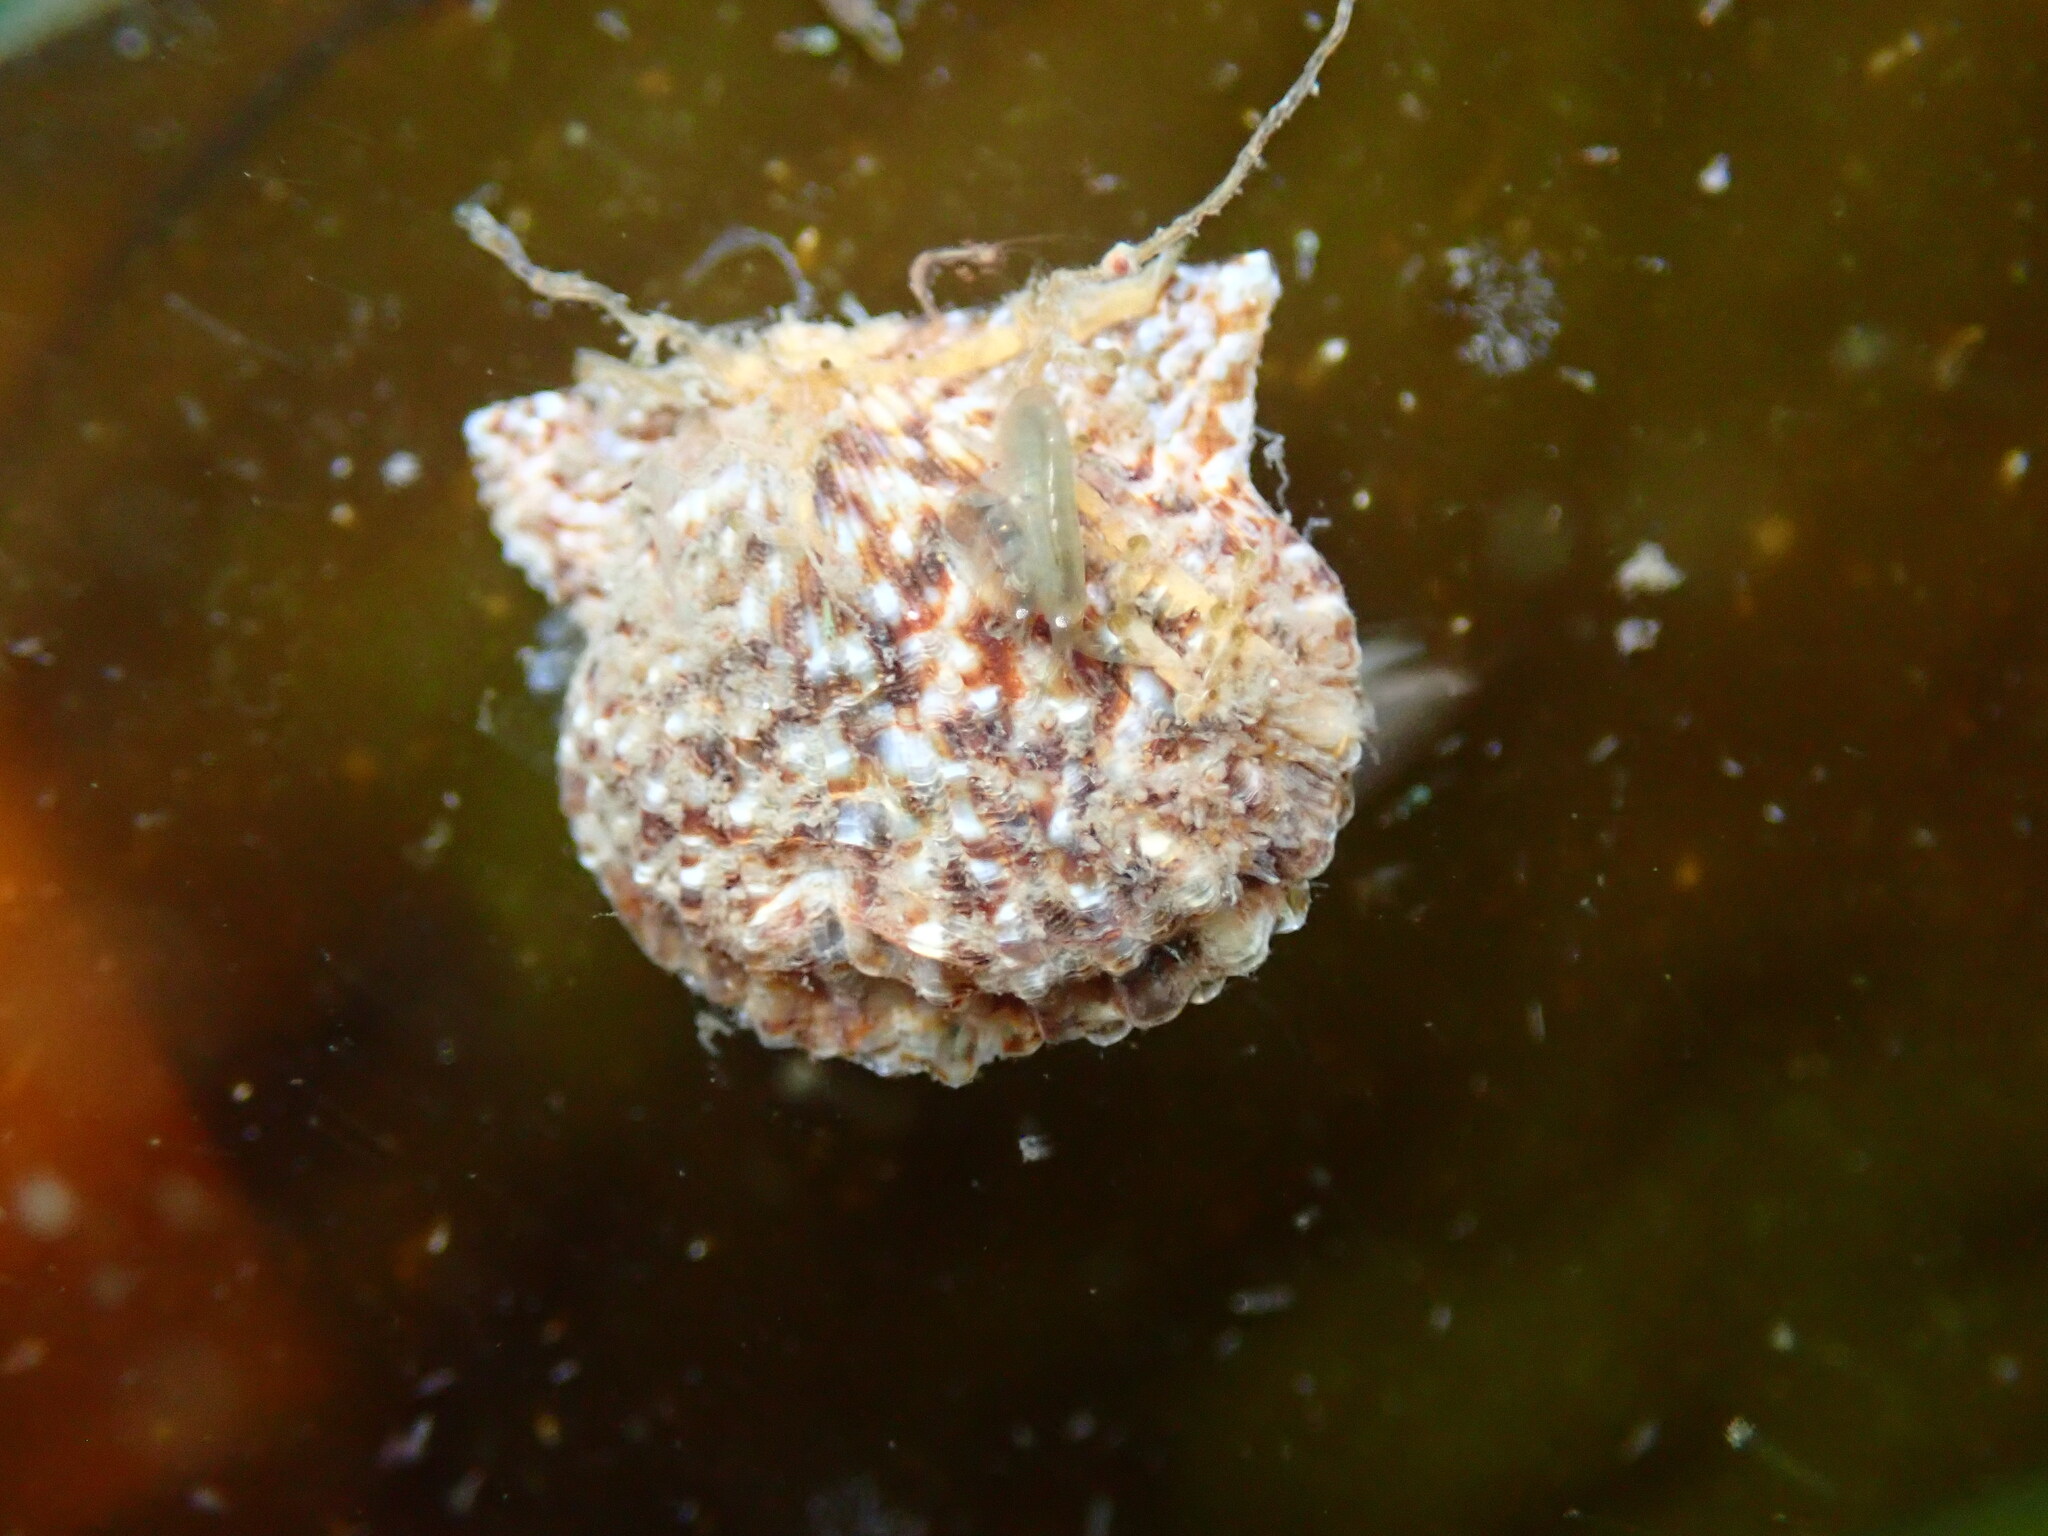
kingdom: Animalia
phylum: Mollusca
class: Bivalvia
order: Pectinida
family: Pectinidae
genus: Leptopecten
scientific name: Leptopecten latiauratus
